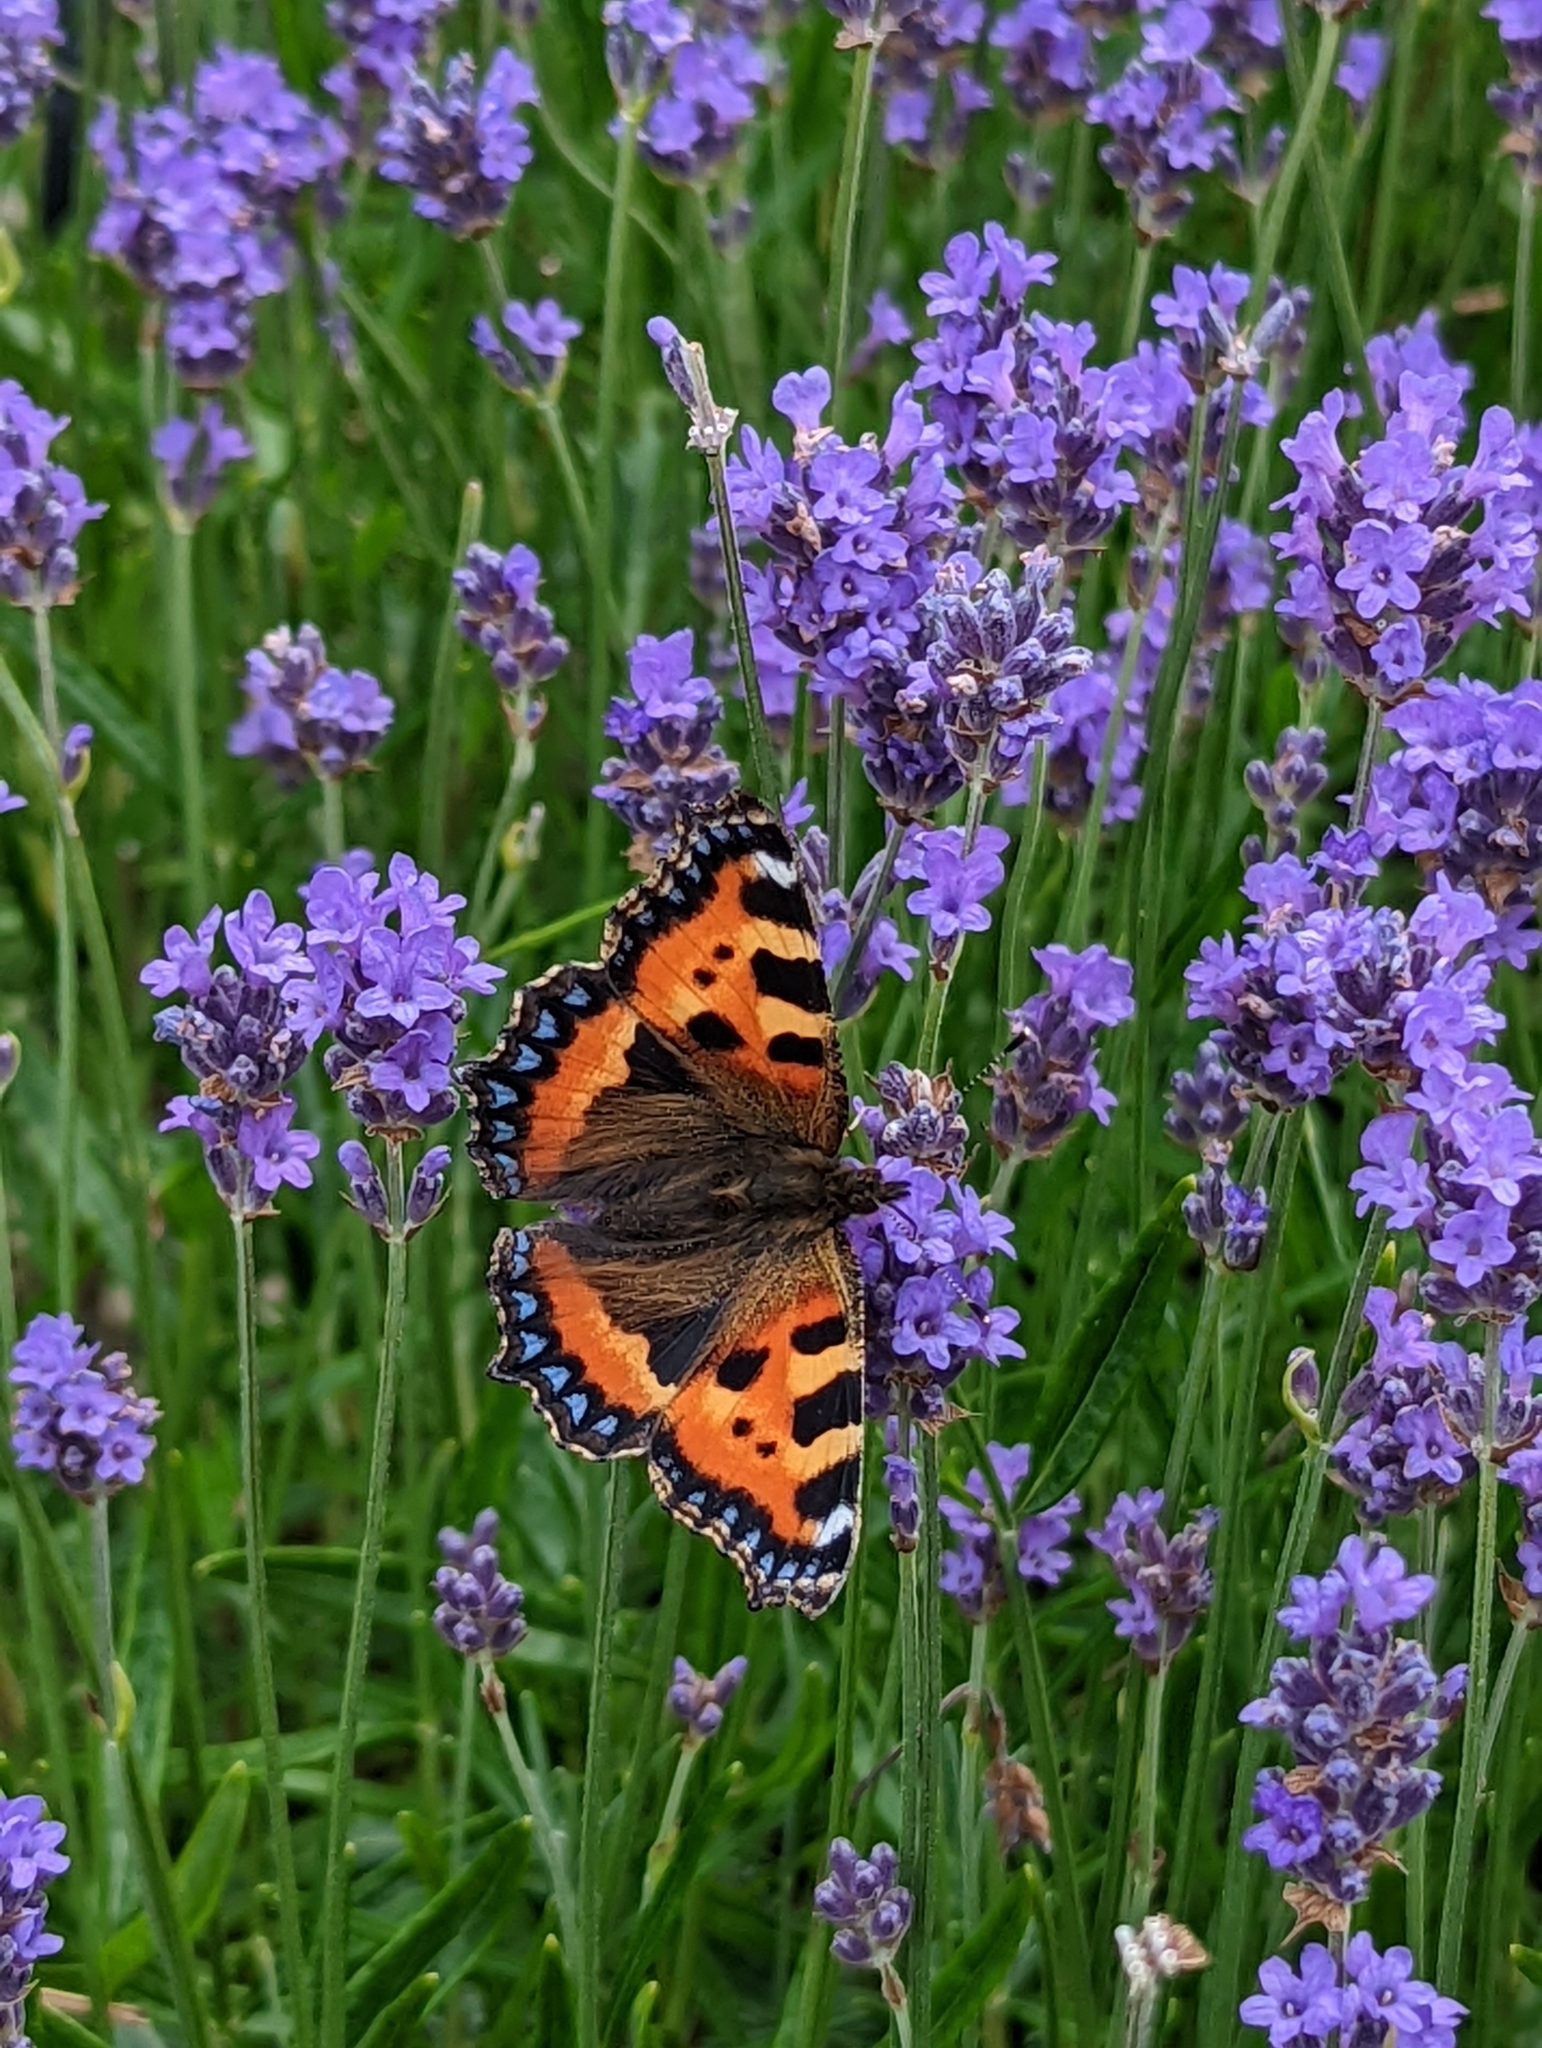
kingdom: Animalia
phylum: Arthropoda
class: Insecta
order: Lepidoptera
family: Nymphalidae
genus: Aglais
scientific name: Aglais urticae
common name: Small tortoiseshell
